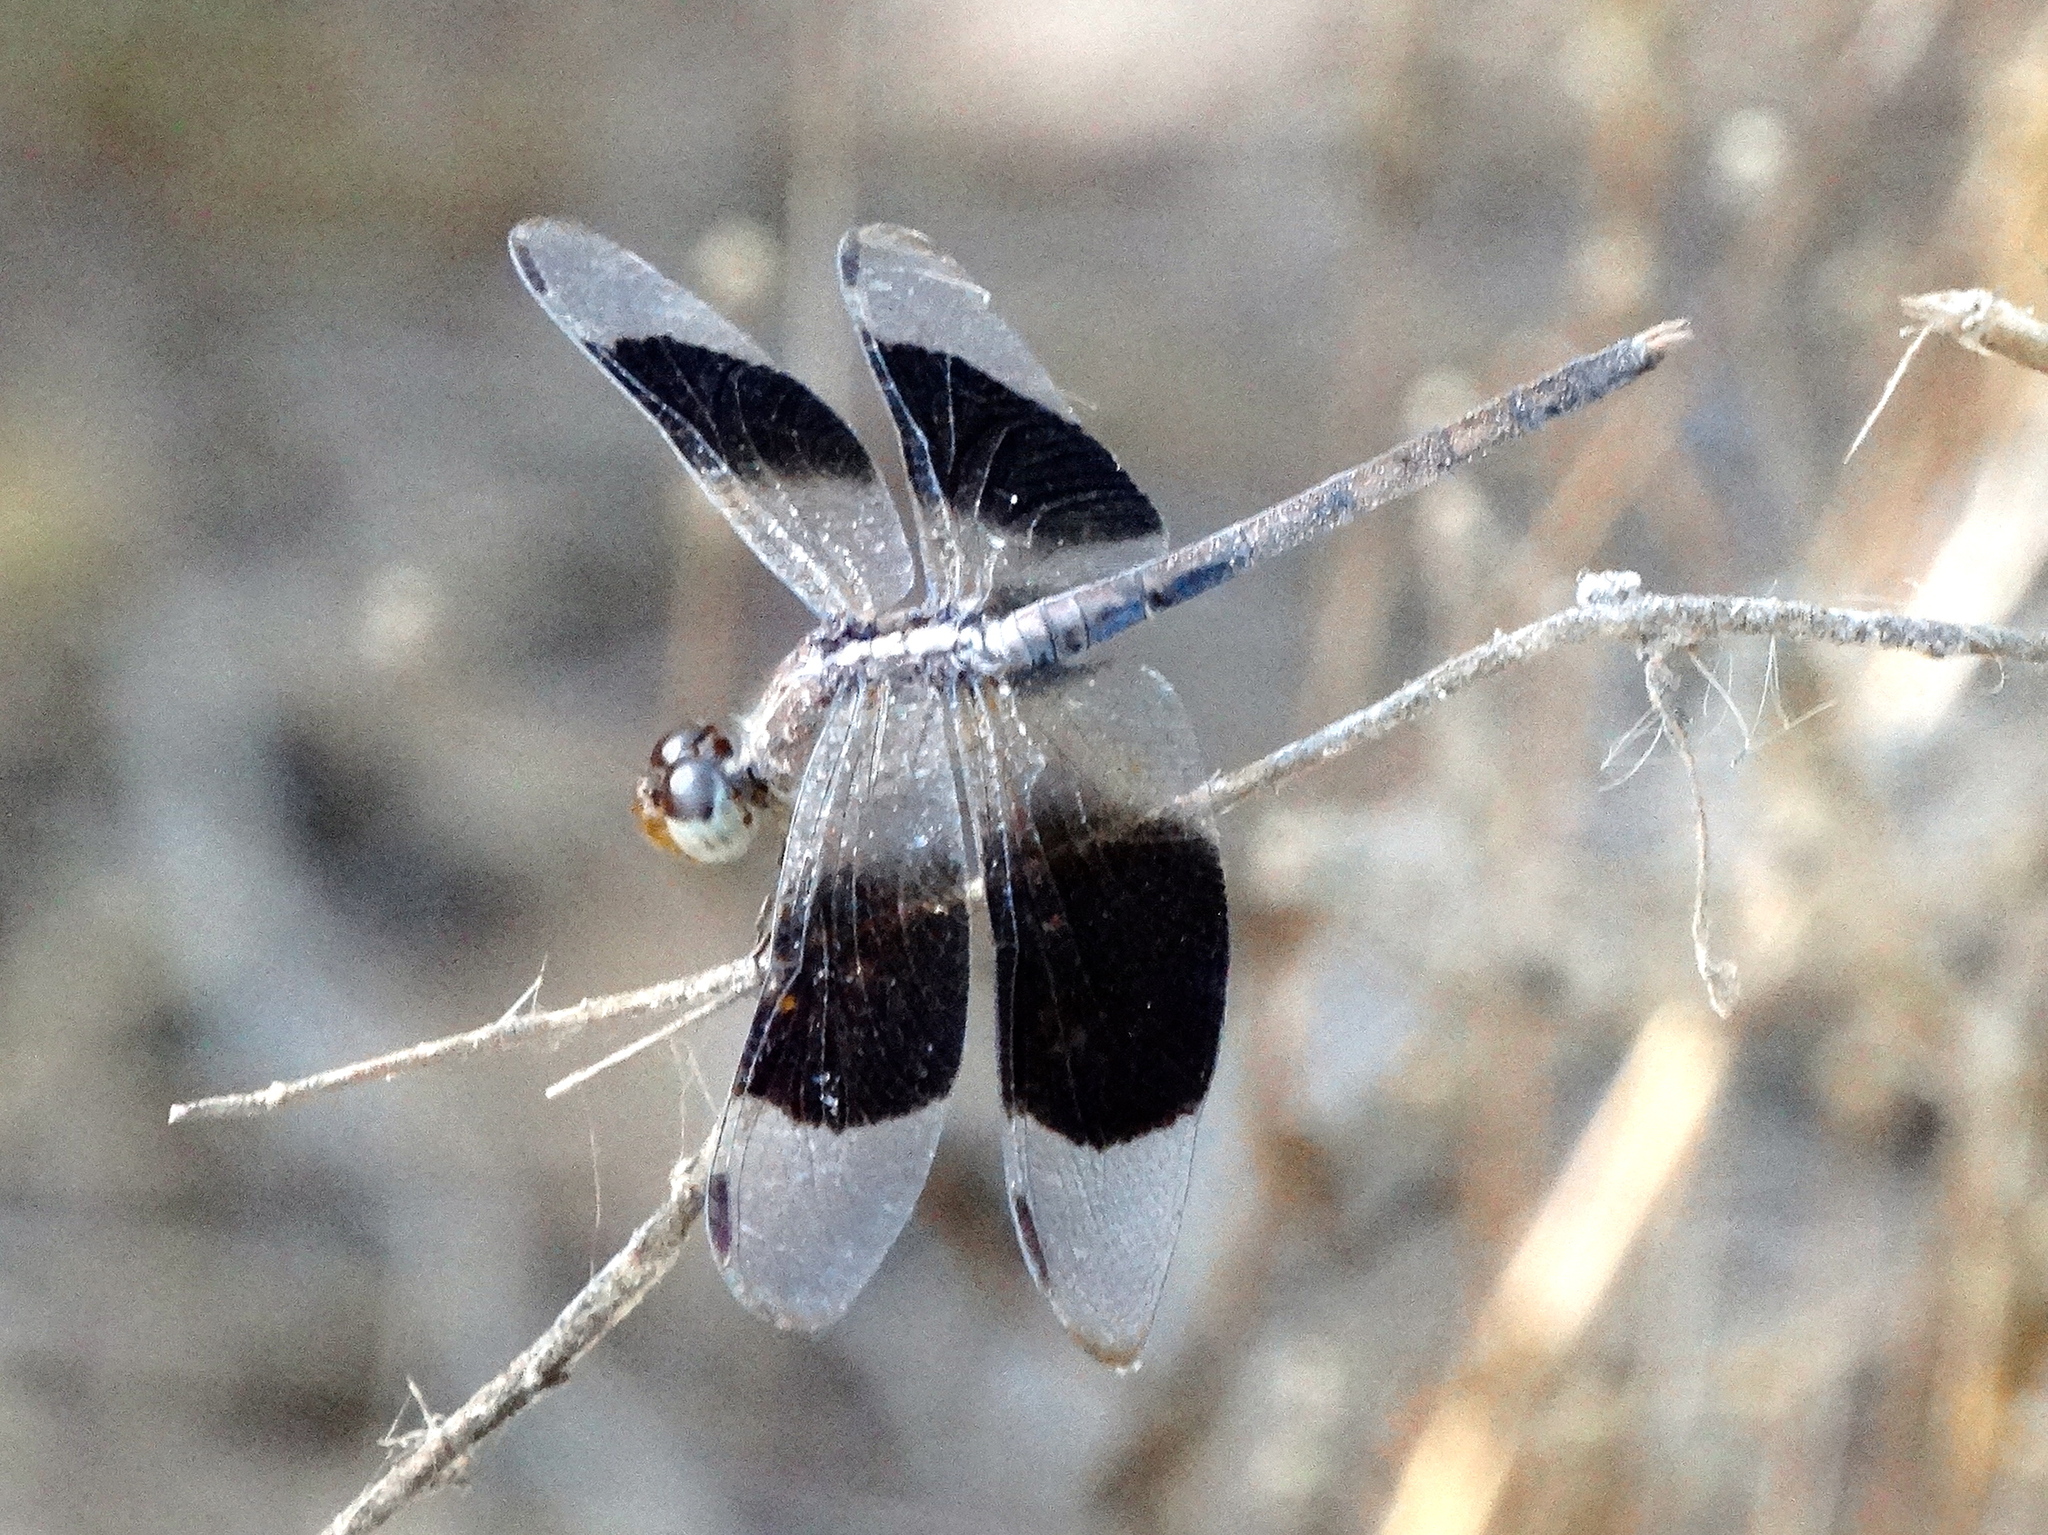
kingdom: Animalia
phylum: Arthropoda
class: Insecta
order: Odonata
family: Libellulidae
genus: Erythrodiplax
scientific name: Erythrodiplax funerea
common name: Black-winged dragonlet
